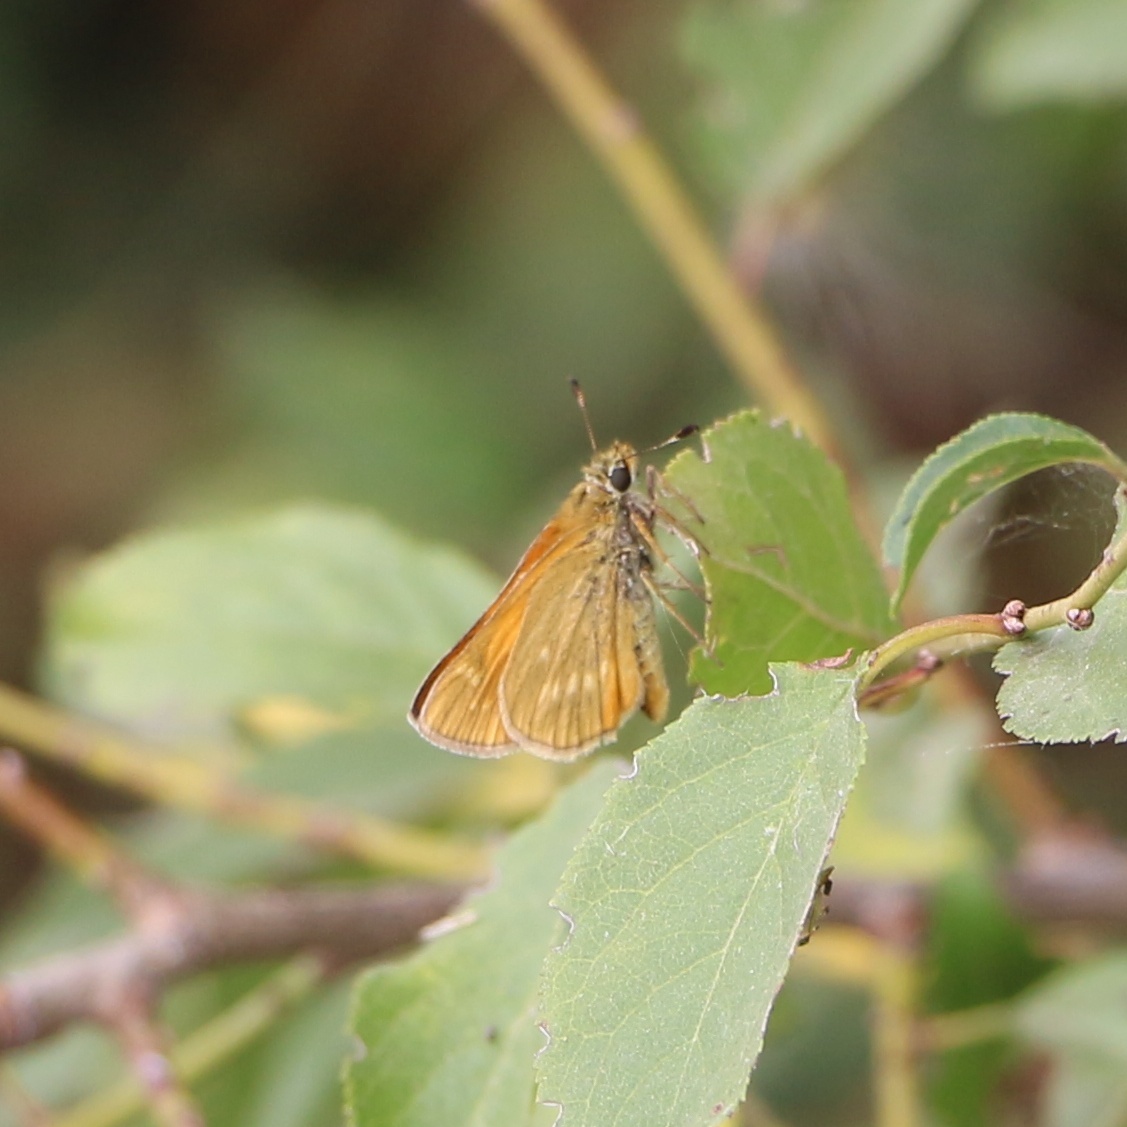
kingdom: Animalia
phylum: Arthropoda
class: Insecta
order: Lepidoptera
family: Hesperiidae
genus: Ochlodes
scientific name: Ochlodes venata
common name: Large skipper
